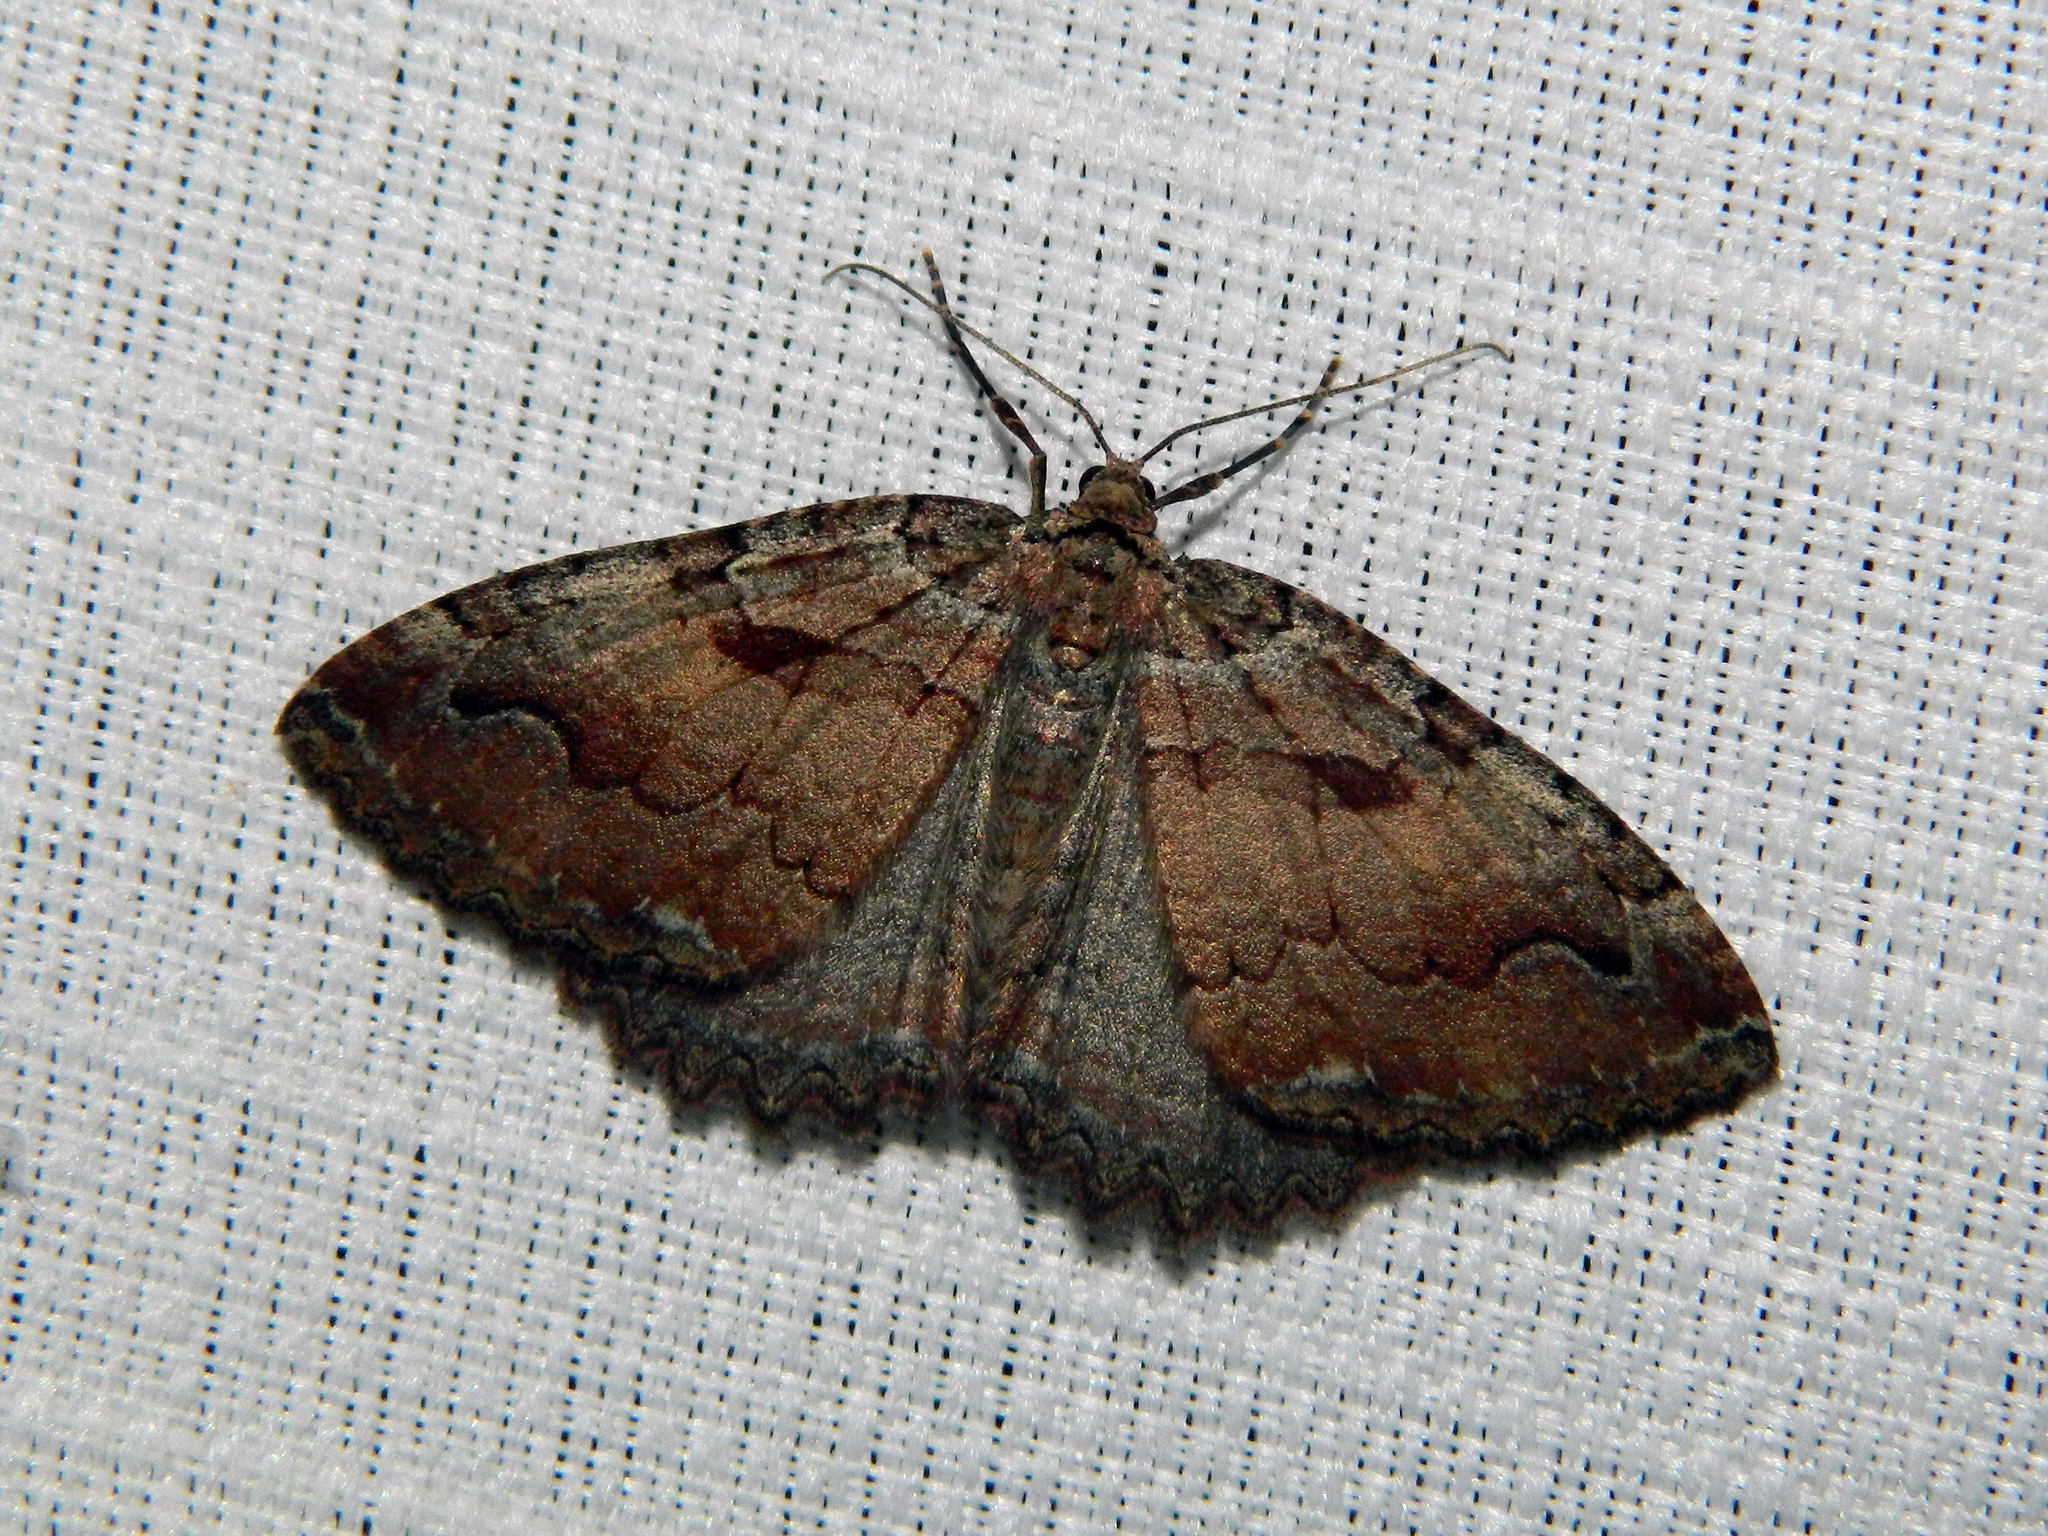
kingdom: Animalia
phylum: Arthropoda
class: Insecta
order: Lepidoptera
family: Geometridae
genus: Triphosa
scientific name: Triphosa haesitata
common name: Tissue moth
